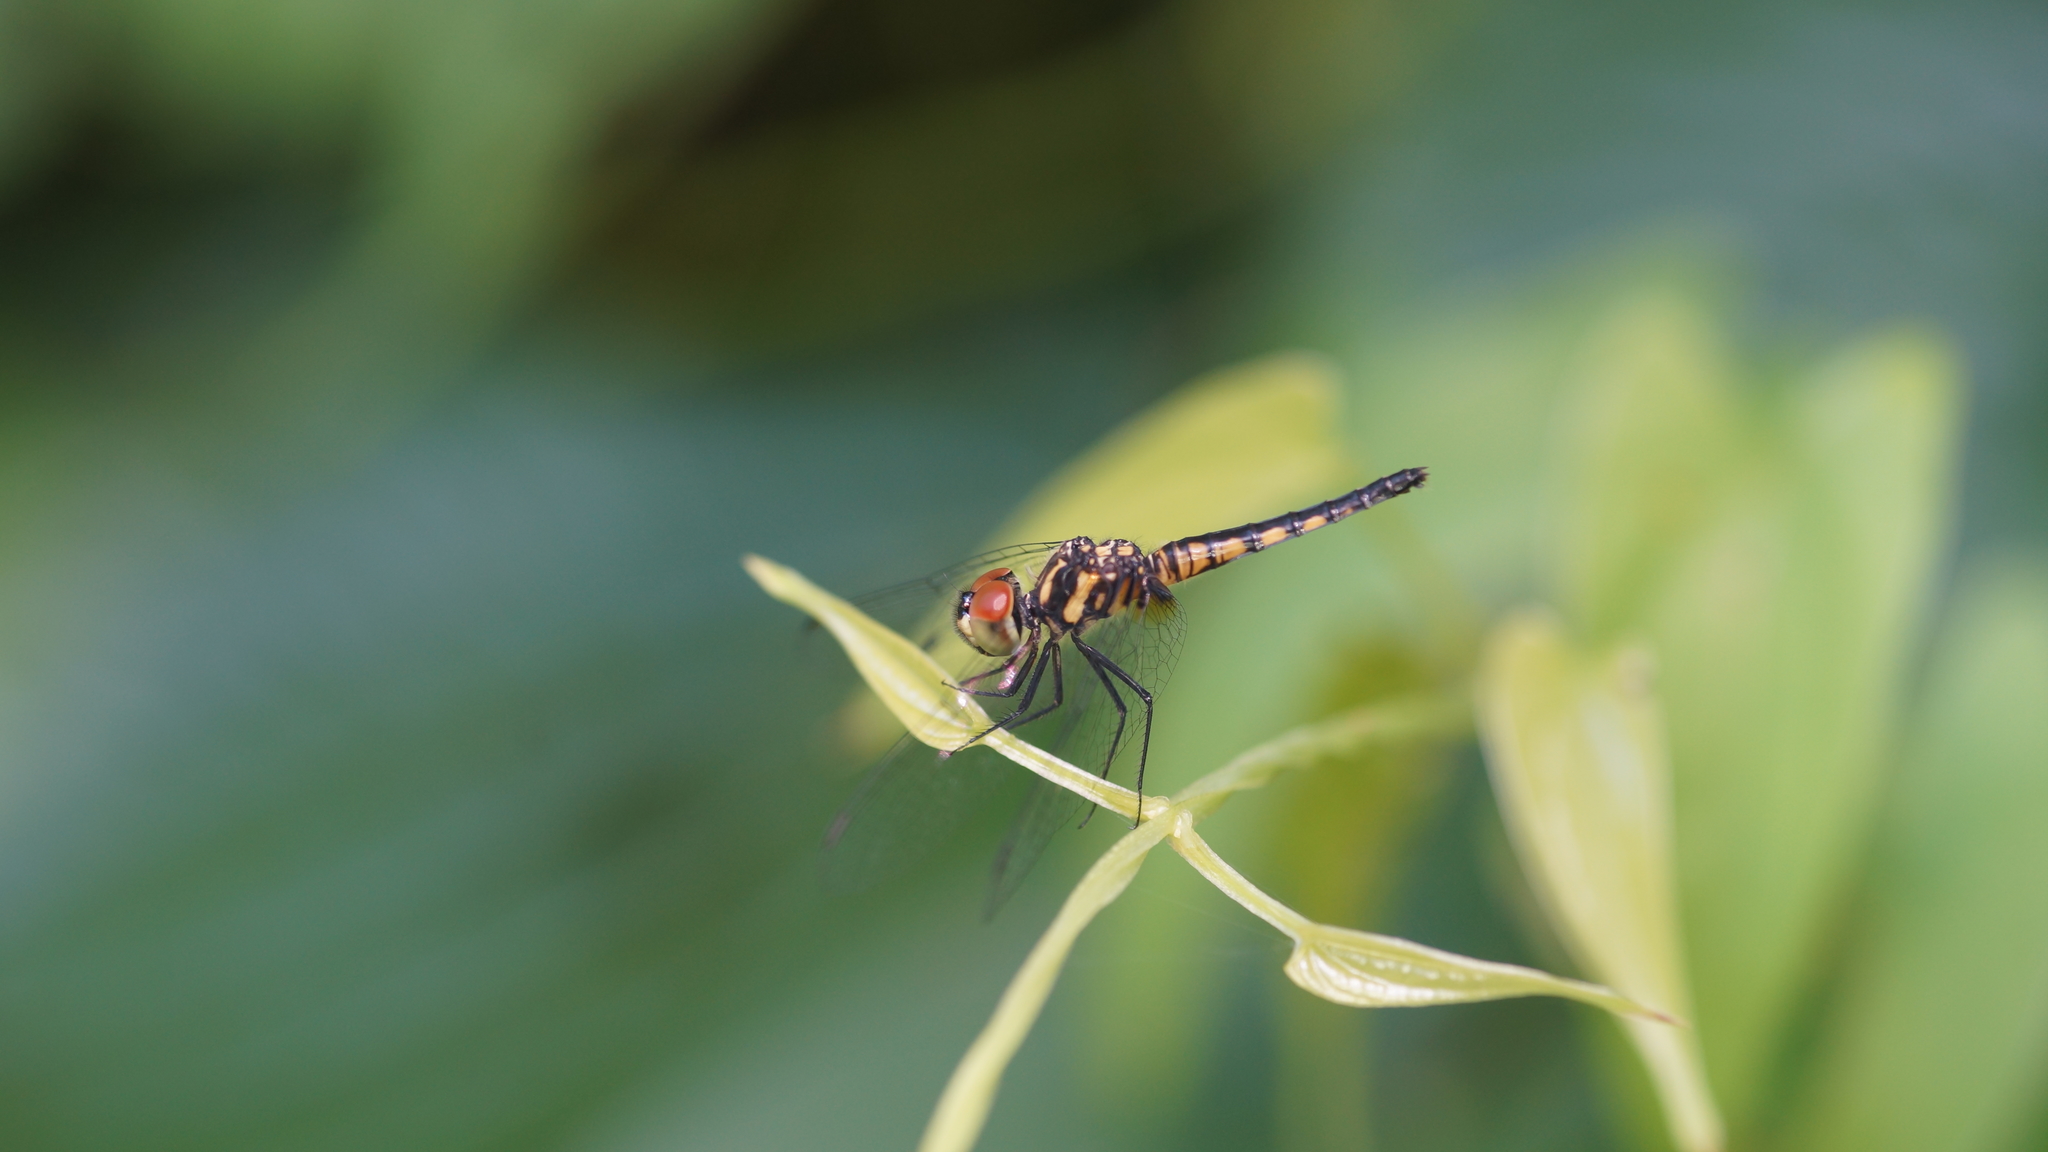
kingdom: Animalia
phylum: Arthropoda
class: Insecta
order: Odonata
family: Libellulidae
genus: Aethriamanta
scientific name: Aethriamanta aethra
